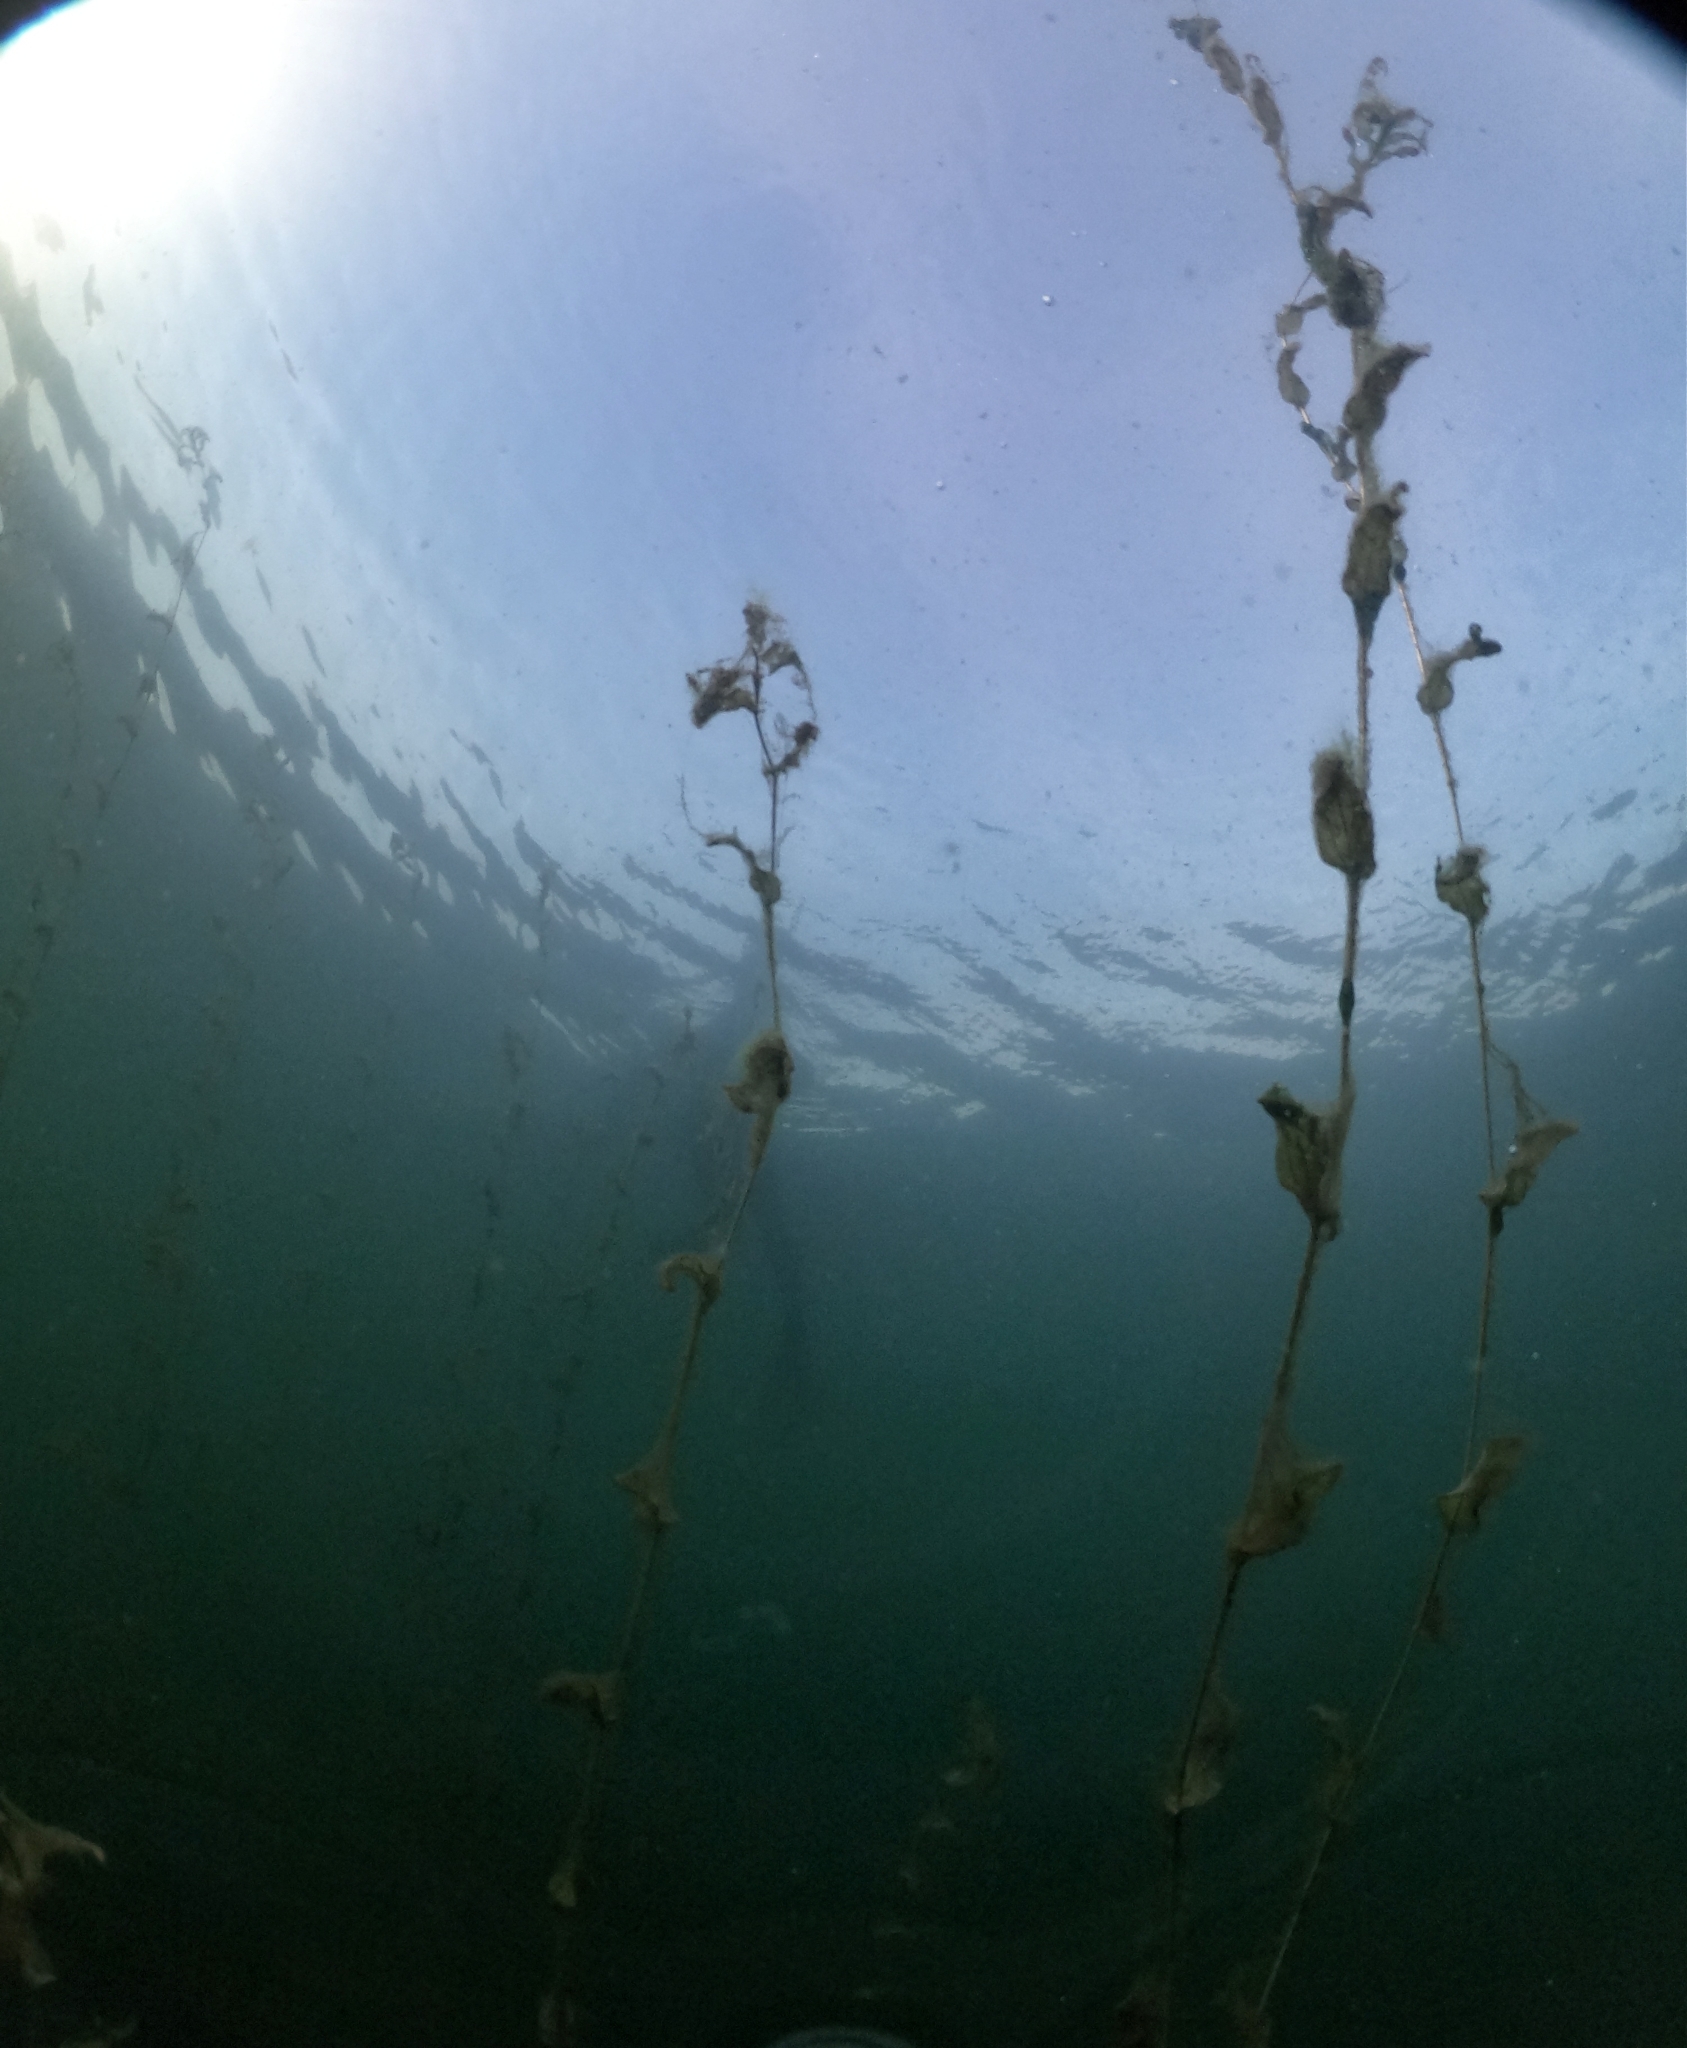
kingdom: Plantae
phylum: Tracheophyta
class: Liliopsida
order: Alismatales
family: Potamogetonaceae
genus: Potamogeton
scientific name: Potamogeton perfoliatus
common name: Perfoliate pondweed
